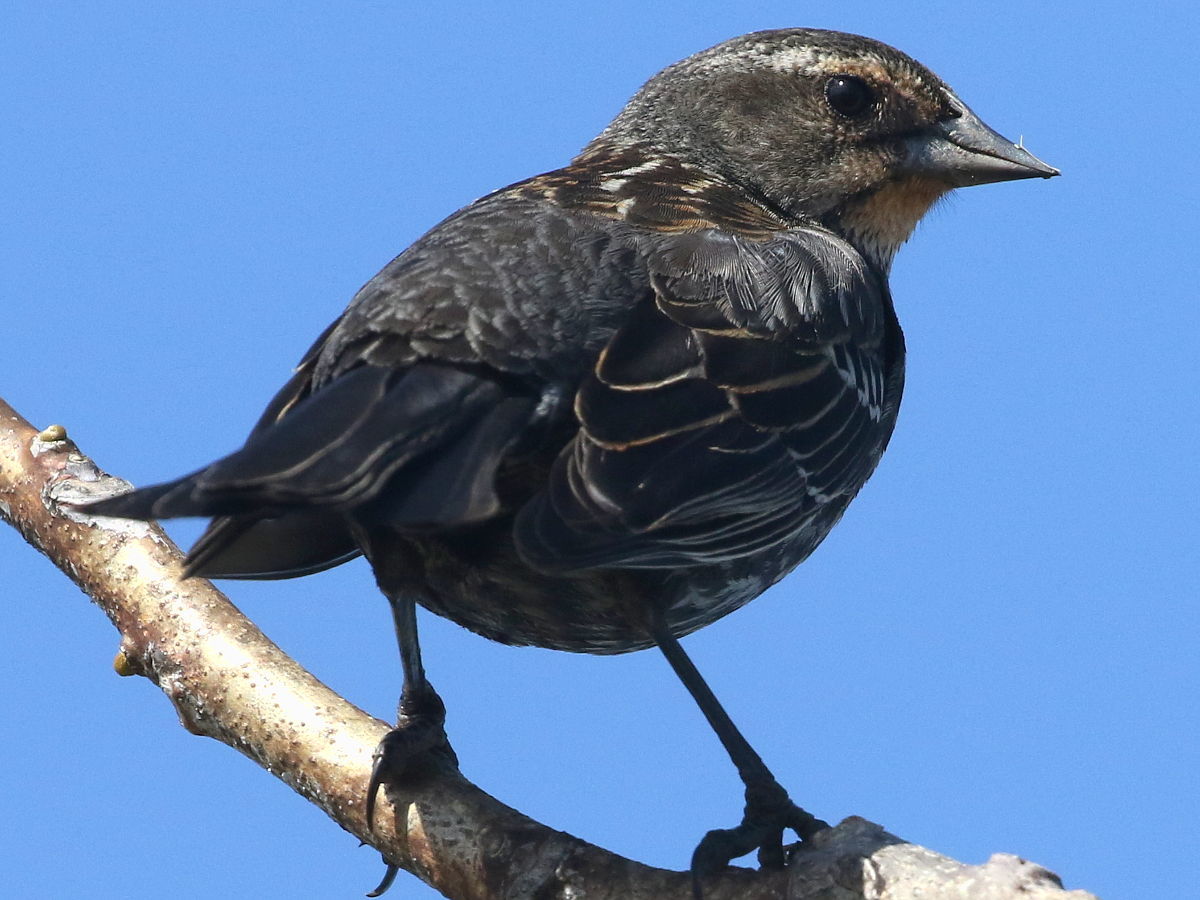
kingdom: Animalia
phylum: Chordata
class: Aves
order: Passeriformes
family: Icteridae
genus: Agelaius
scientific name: Agelaius phoeniceus
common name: Red-winged blackbird
